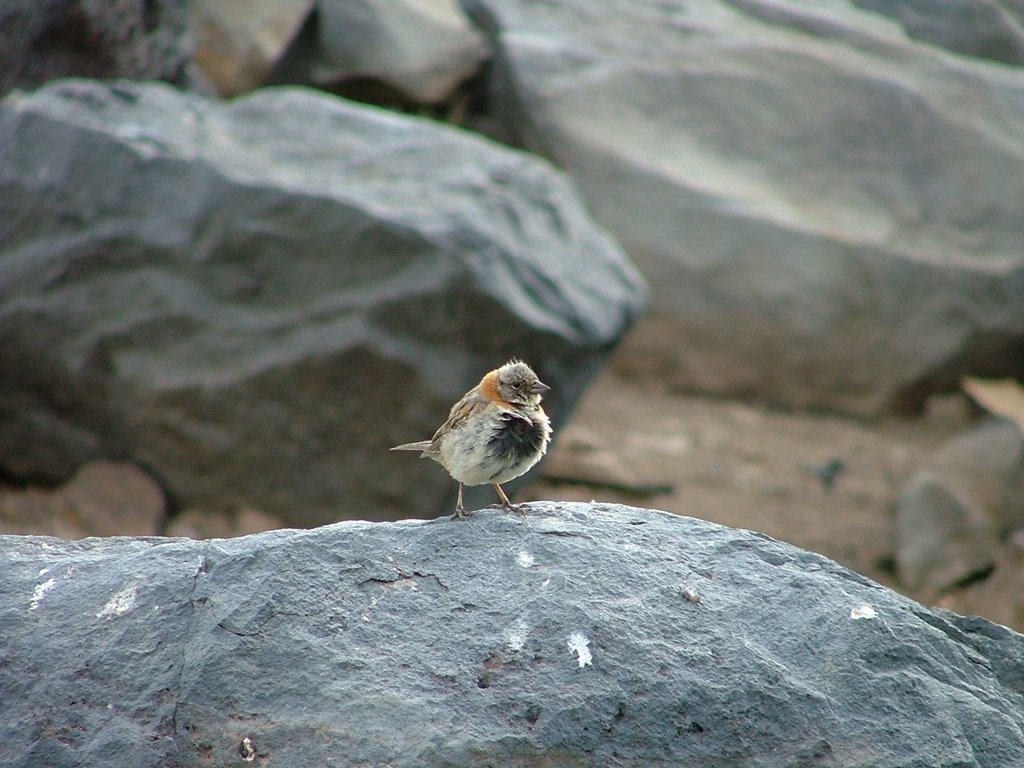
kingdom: Animalia
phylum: Chordata
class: Aves
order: Passeriformes
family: Passerellidae
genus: Zonotrichia
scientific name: Zonotrichia capensis
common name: Rufous-collared sparrow
